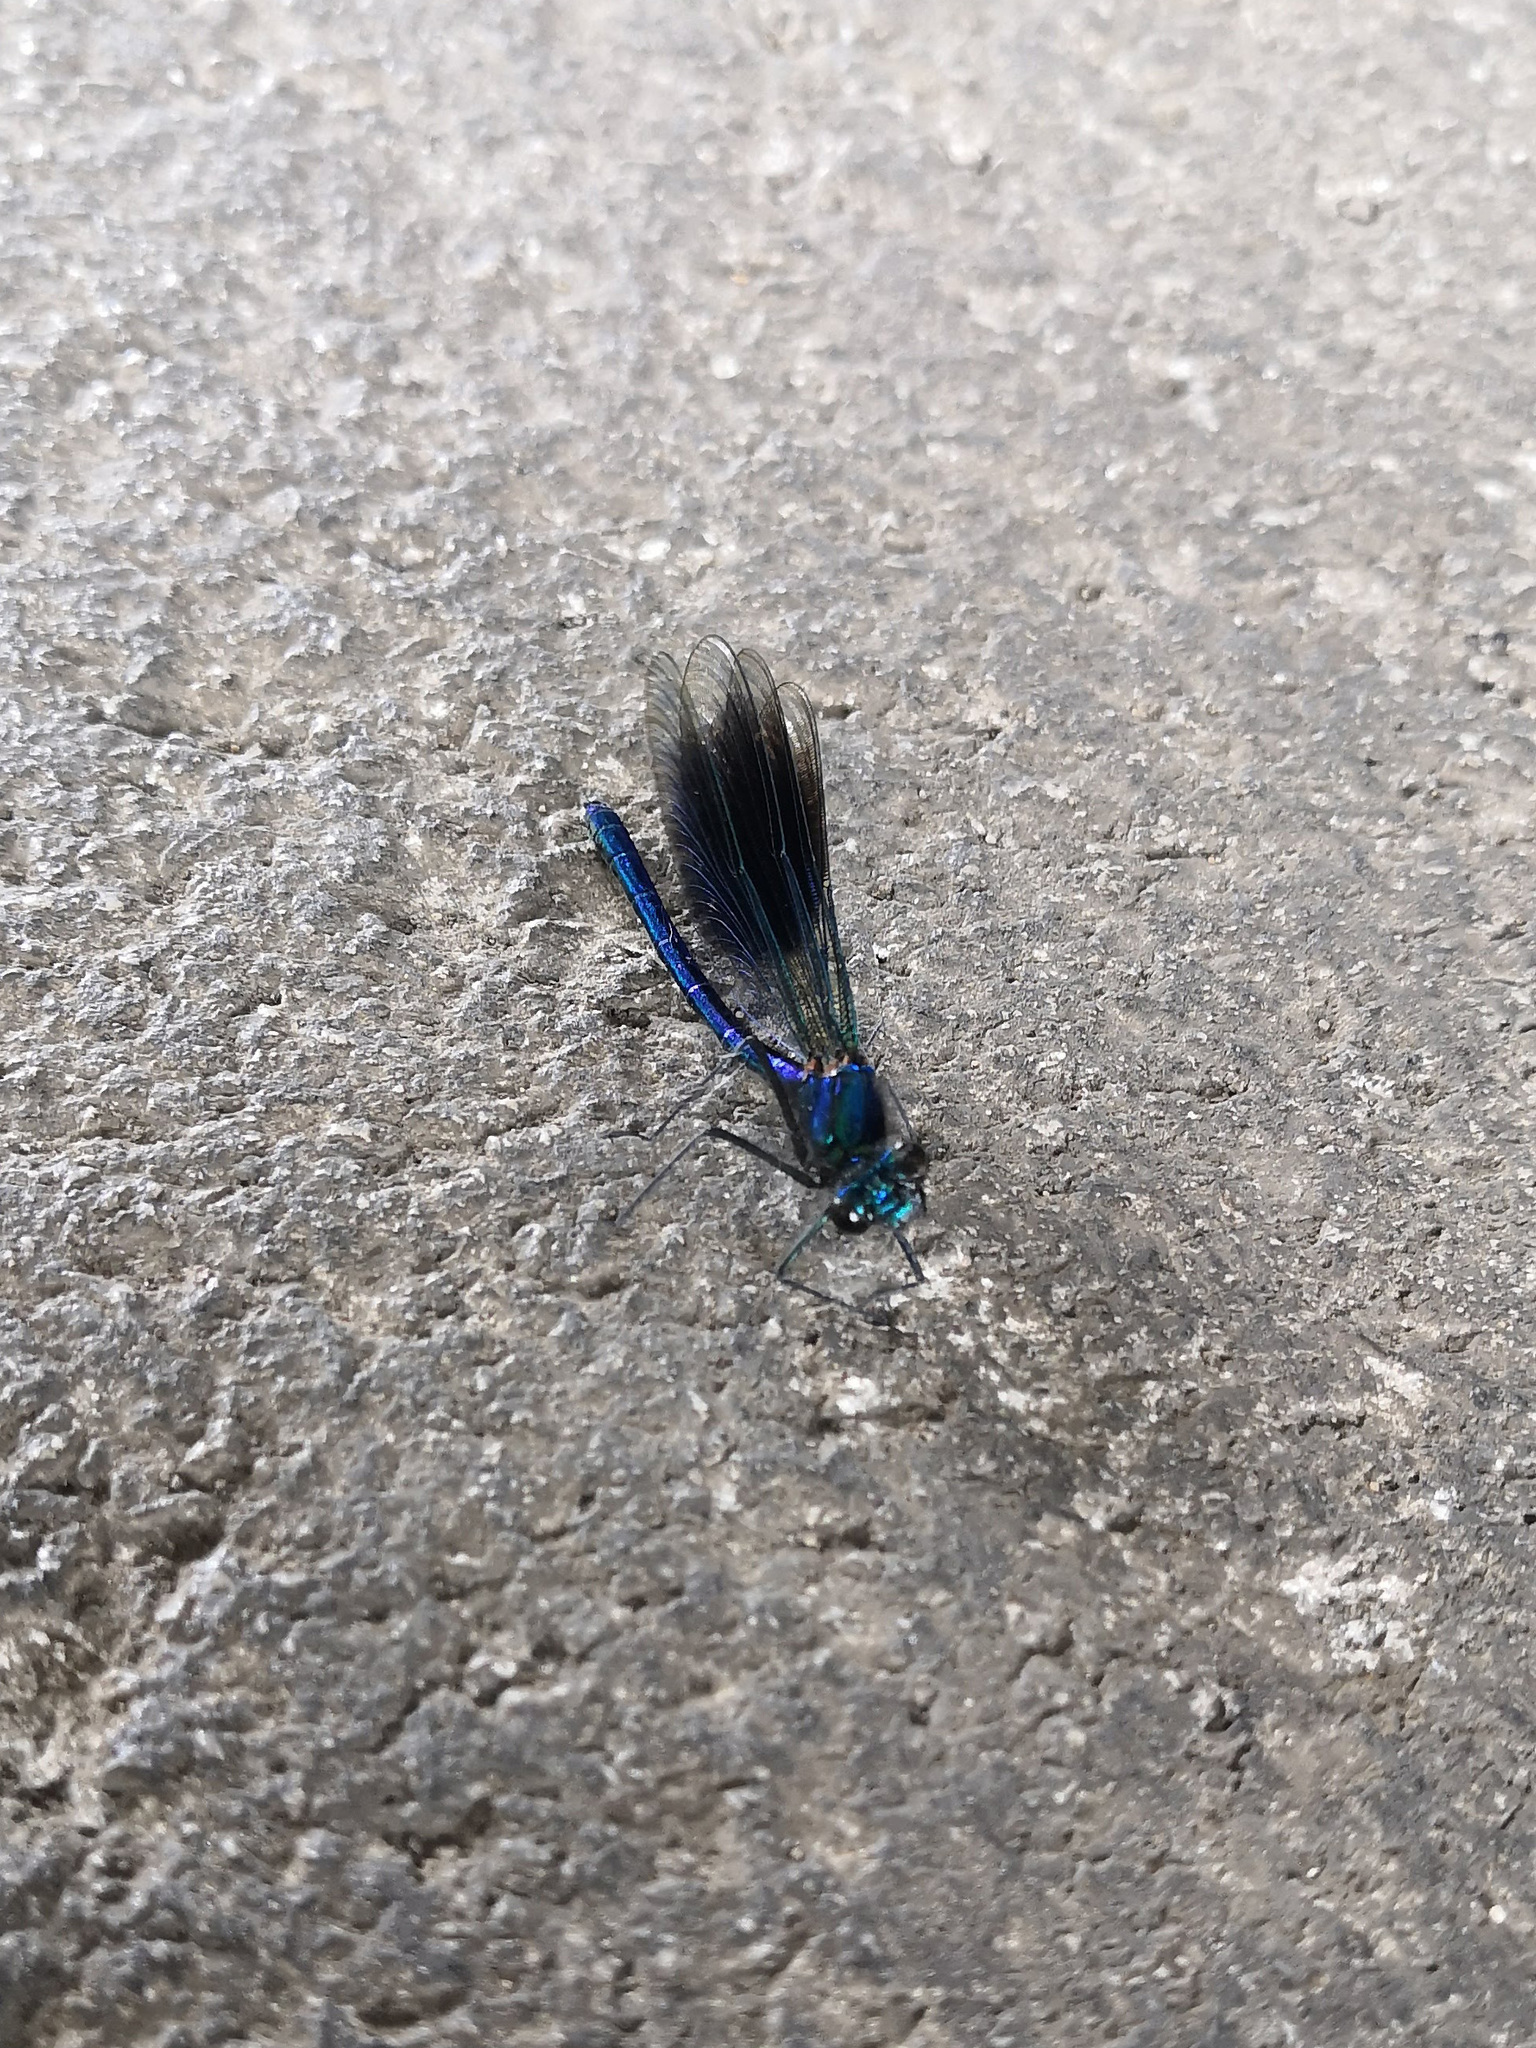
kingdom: Animalia
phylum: Arthropoda
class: Insecta
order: Odonata
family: Calopterygidae
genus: Calopteryx
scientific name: Calopteryx splendens
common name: Banded demoiselle
